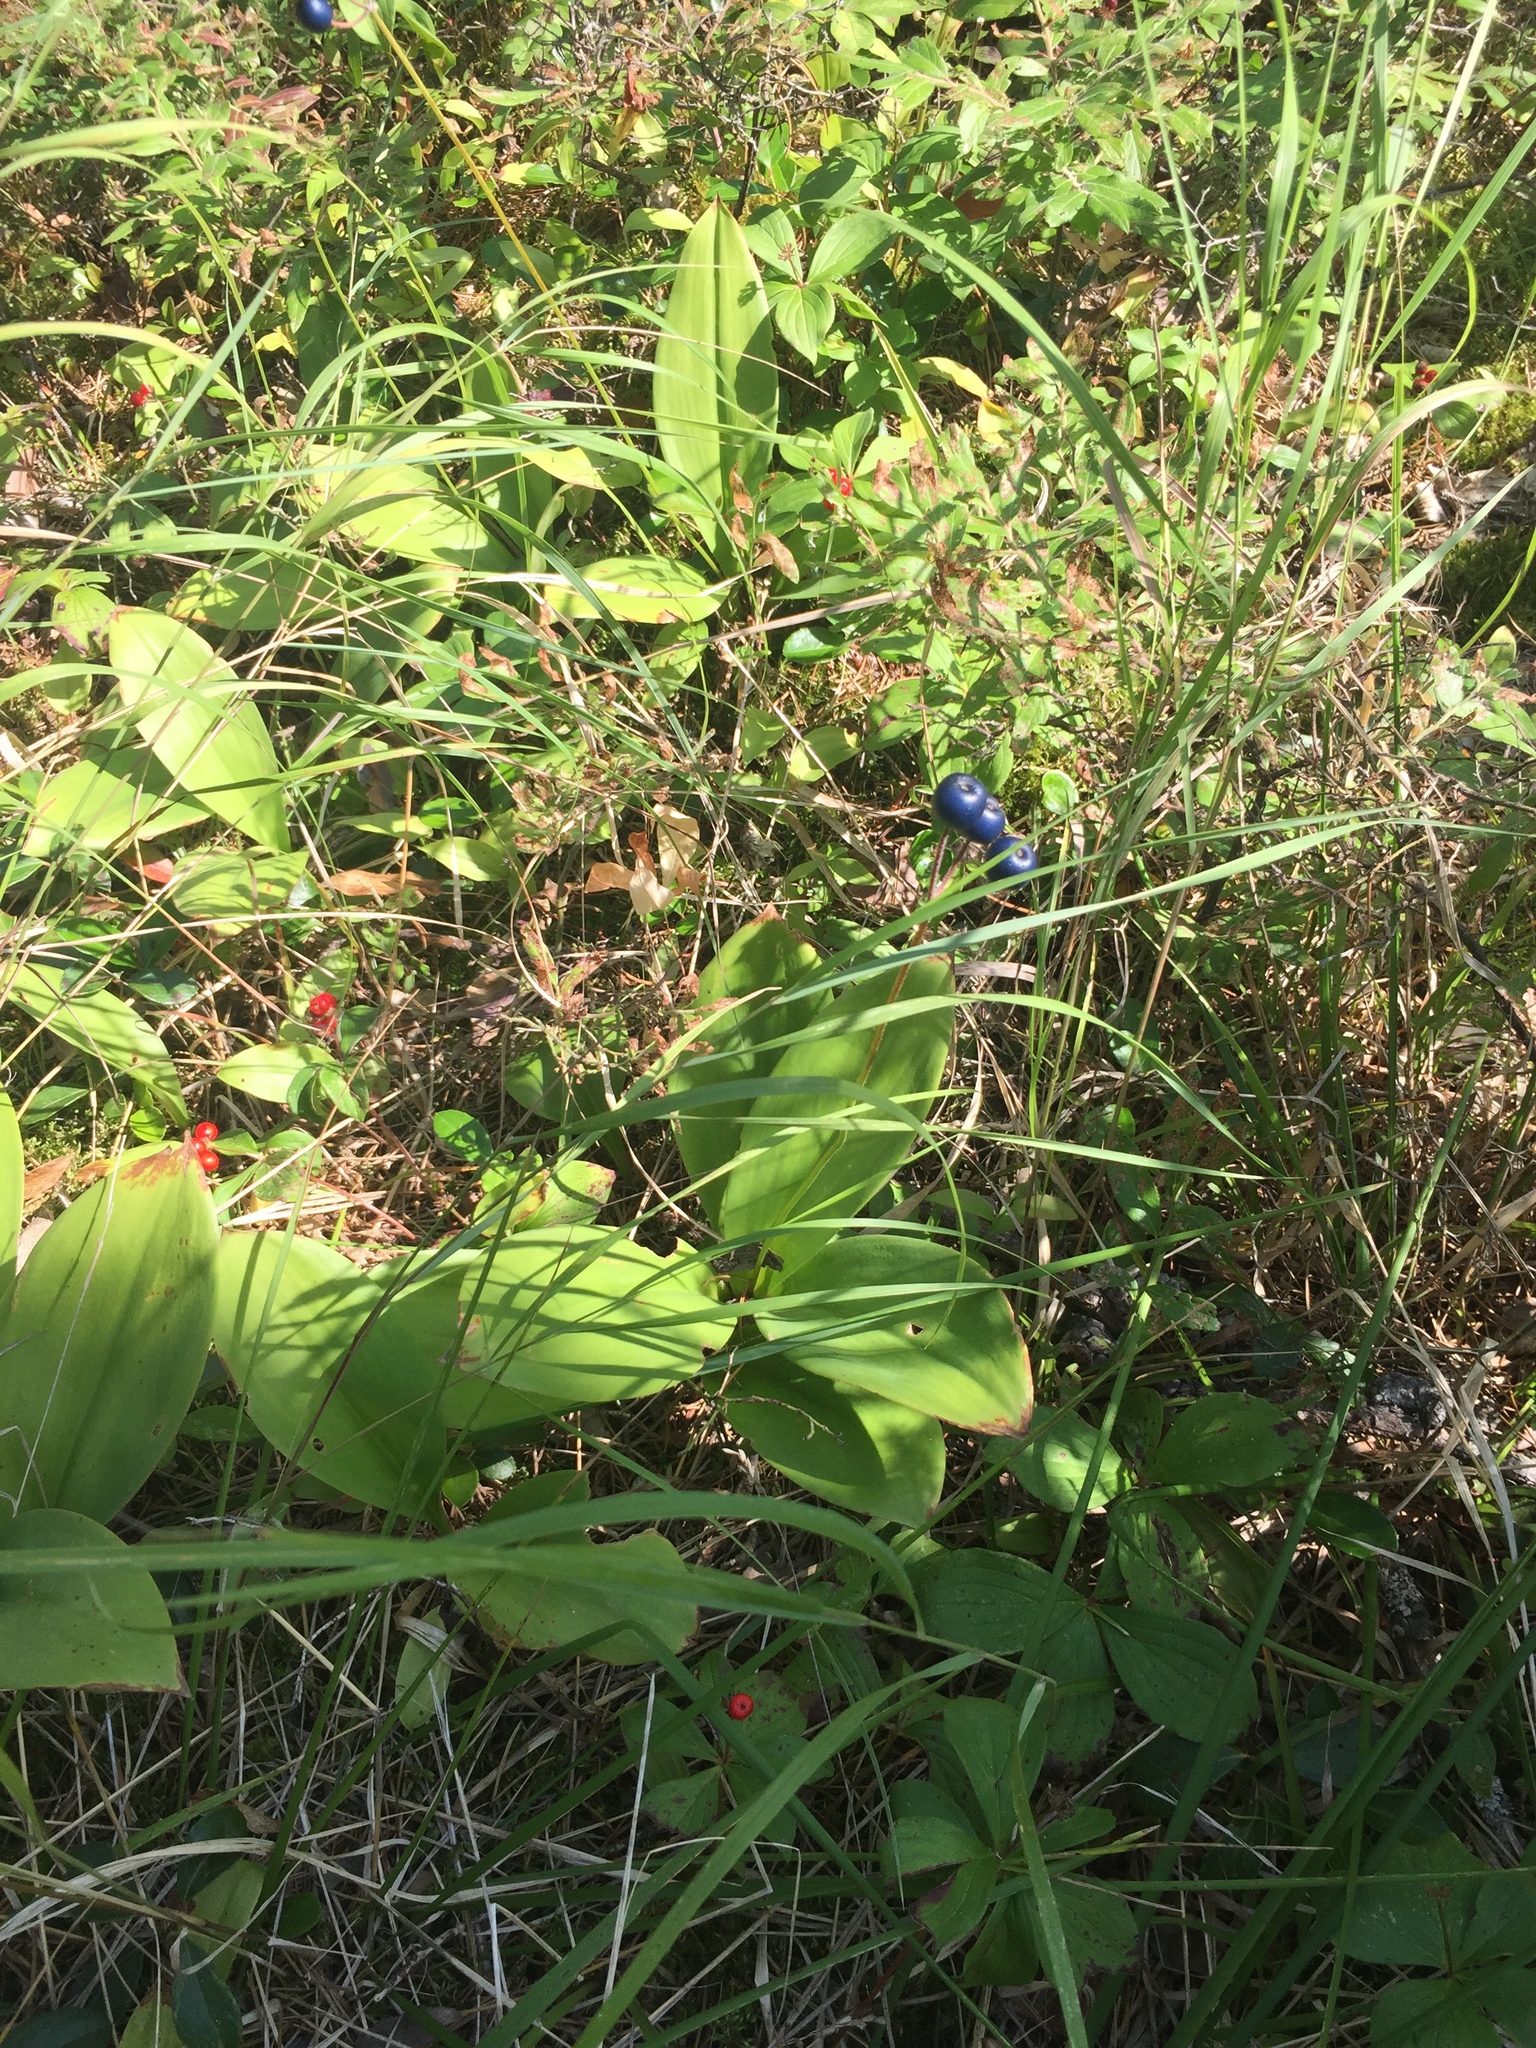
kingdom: Plantae
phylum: Tracheophyta
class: Liliopsida
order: Liliales
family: Liliaceae
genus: Clintonia
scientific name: Clintonia borealis
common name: Yellow clintonia
